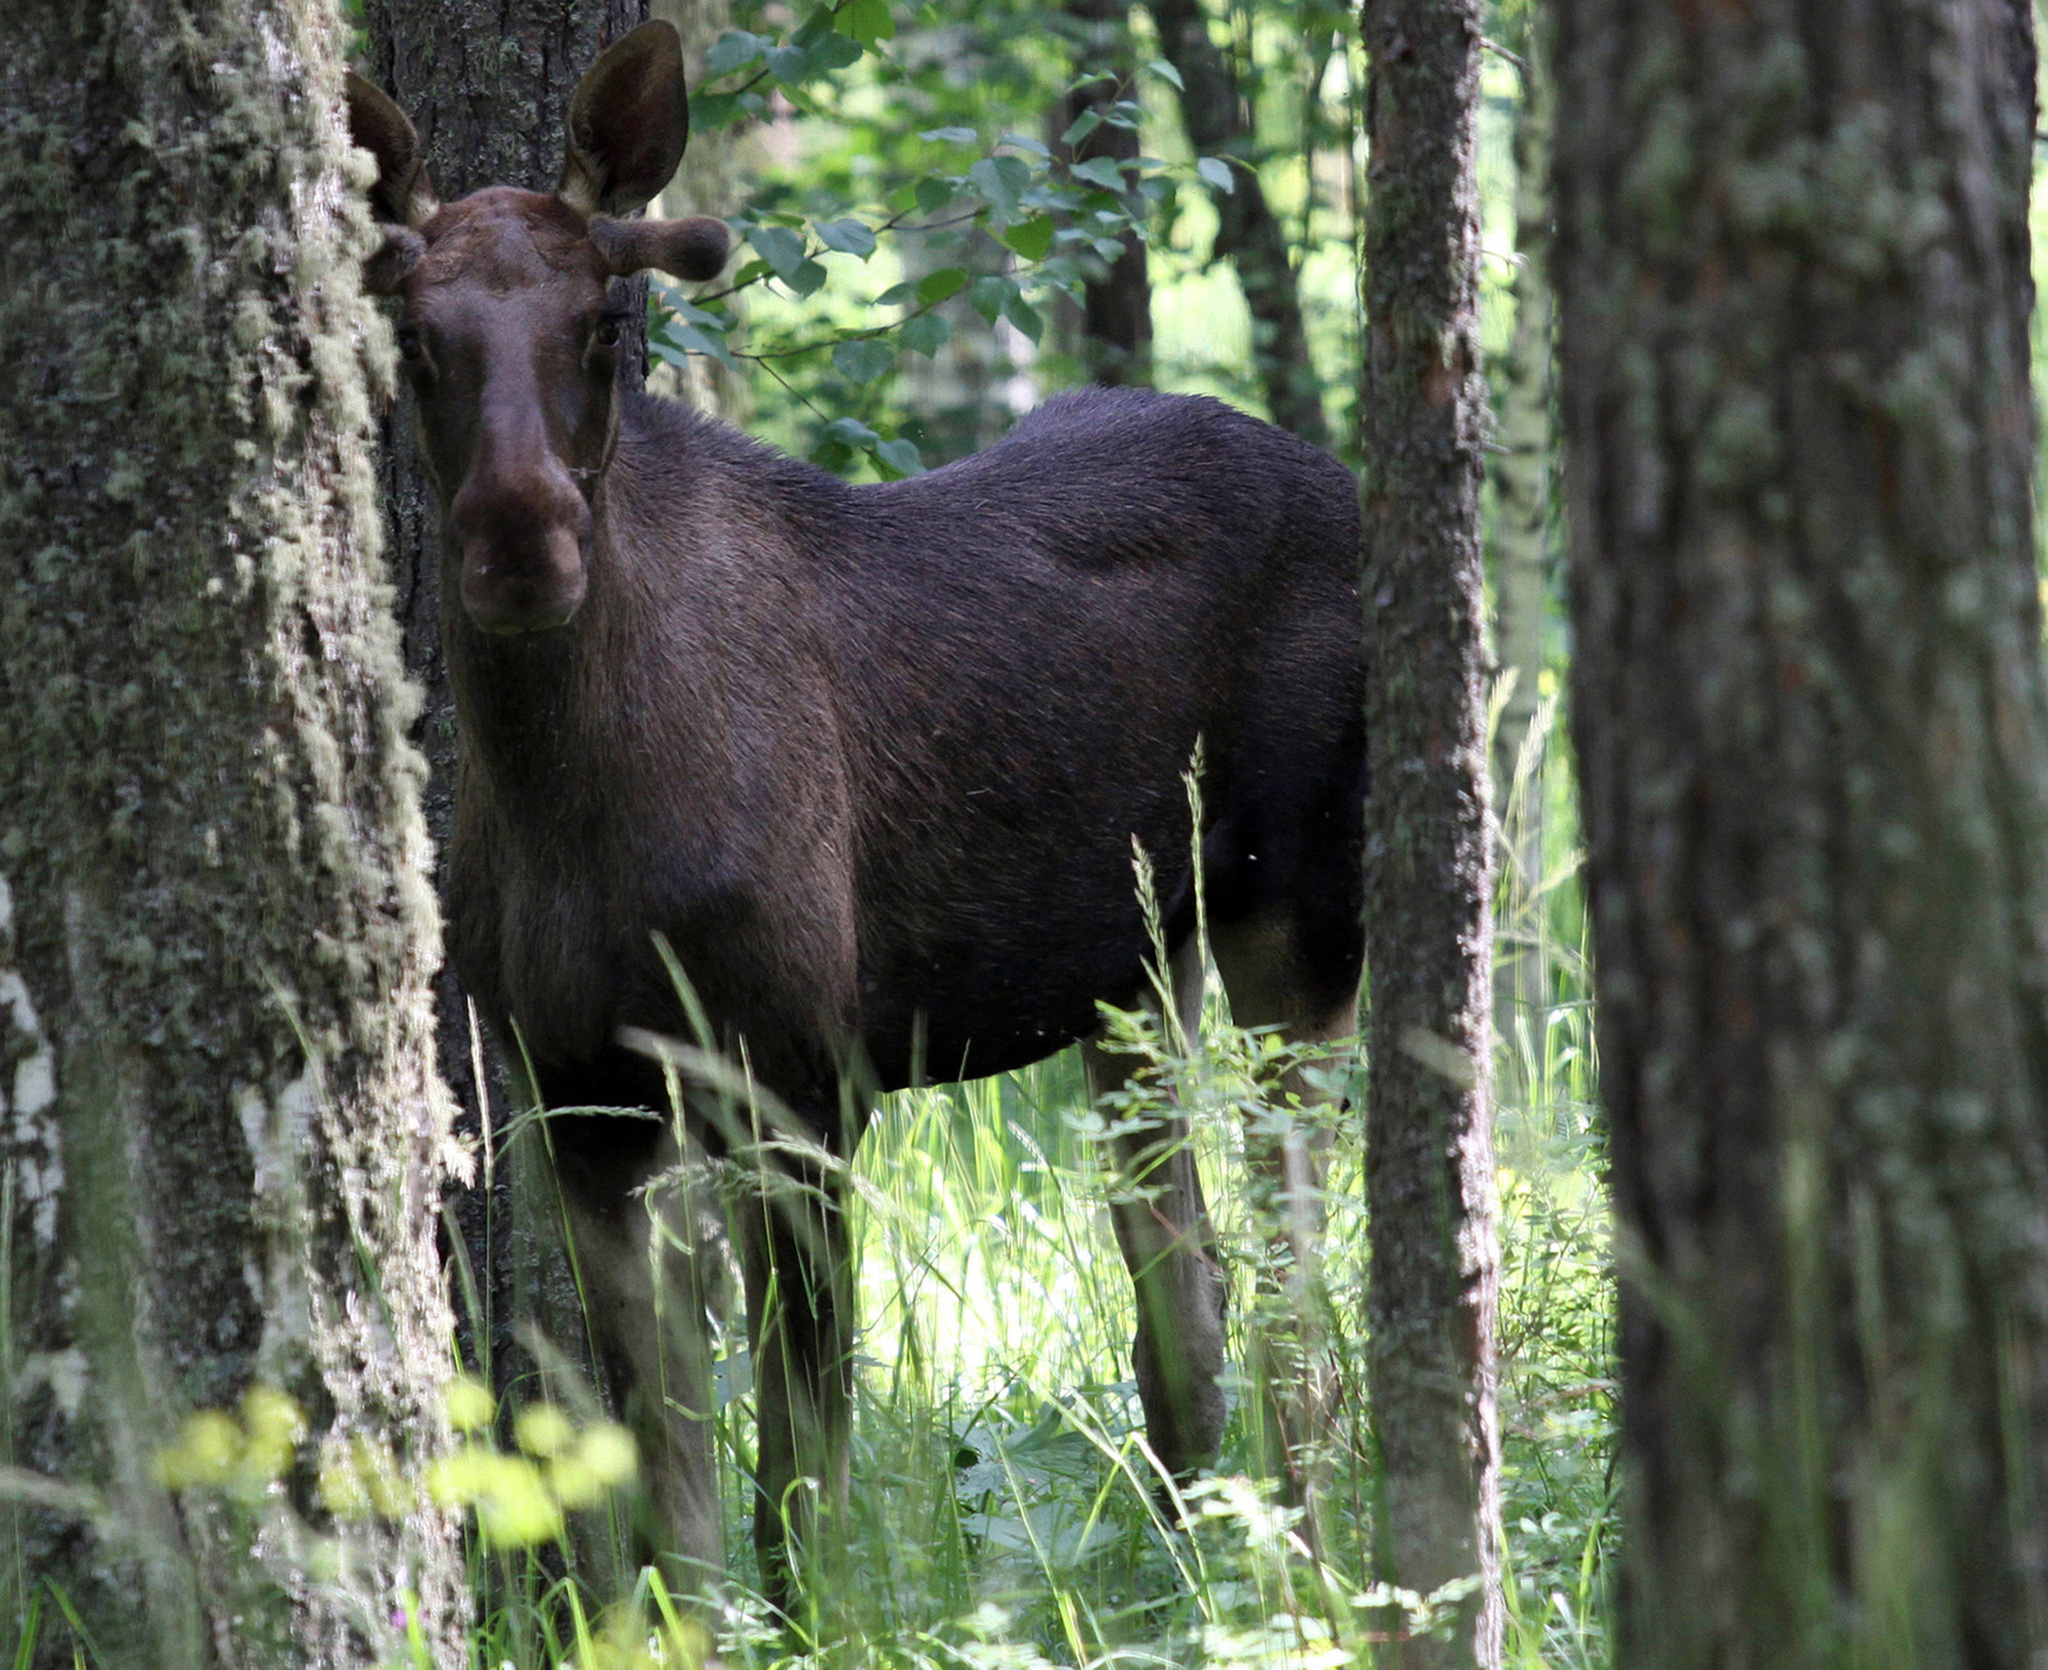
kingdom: Animalia
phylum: Chordata
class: Mammalia
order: Artiodactyla
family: Cervidae
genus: Alces
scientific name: Alces alces
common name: Moose
